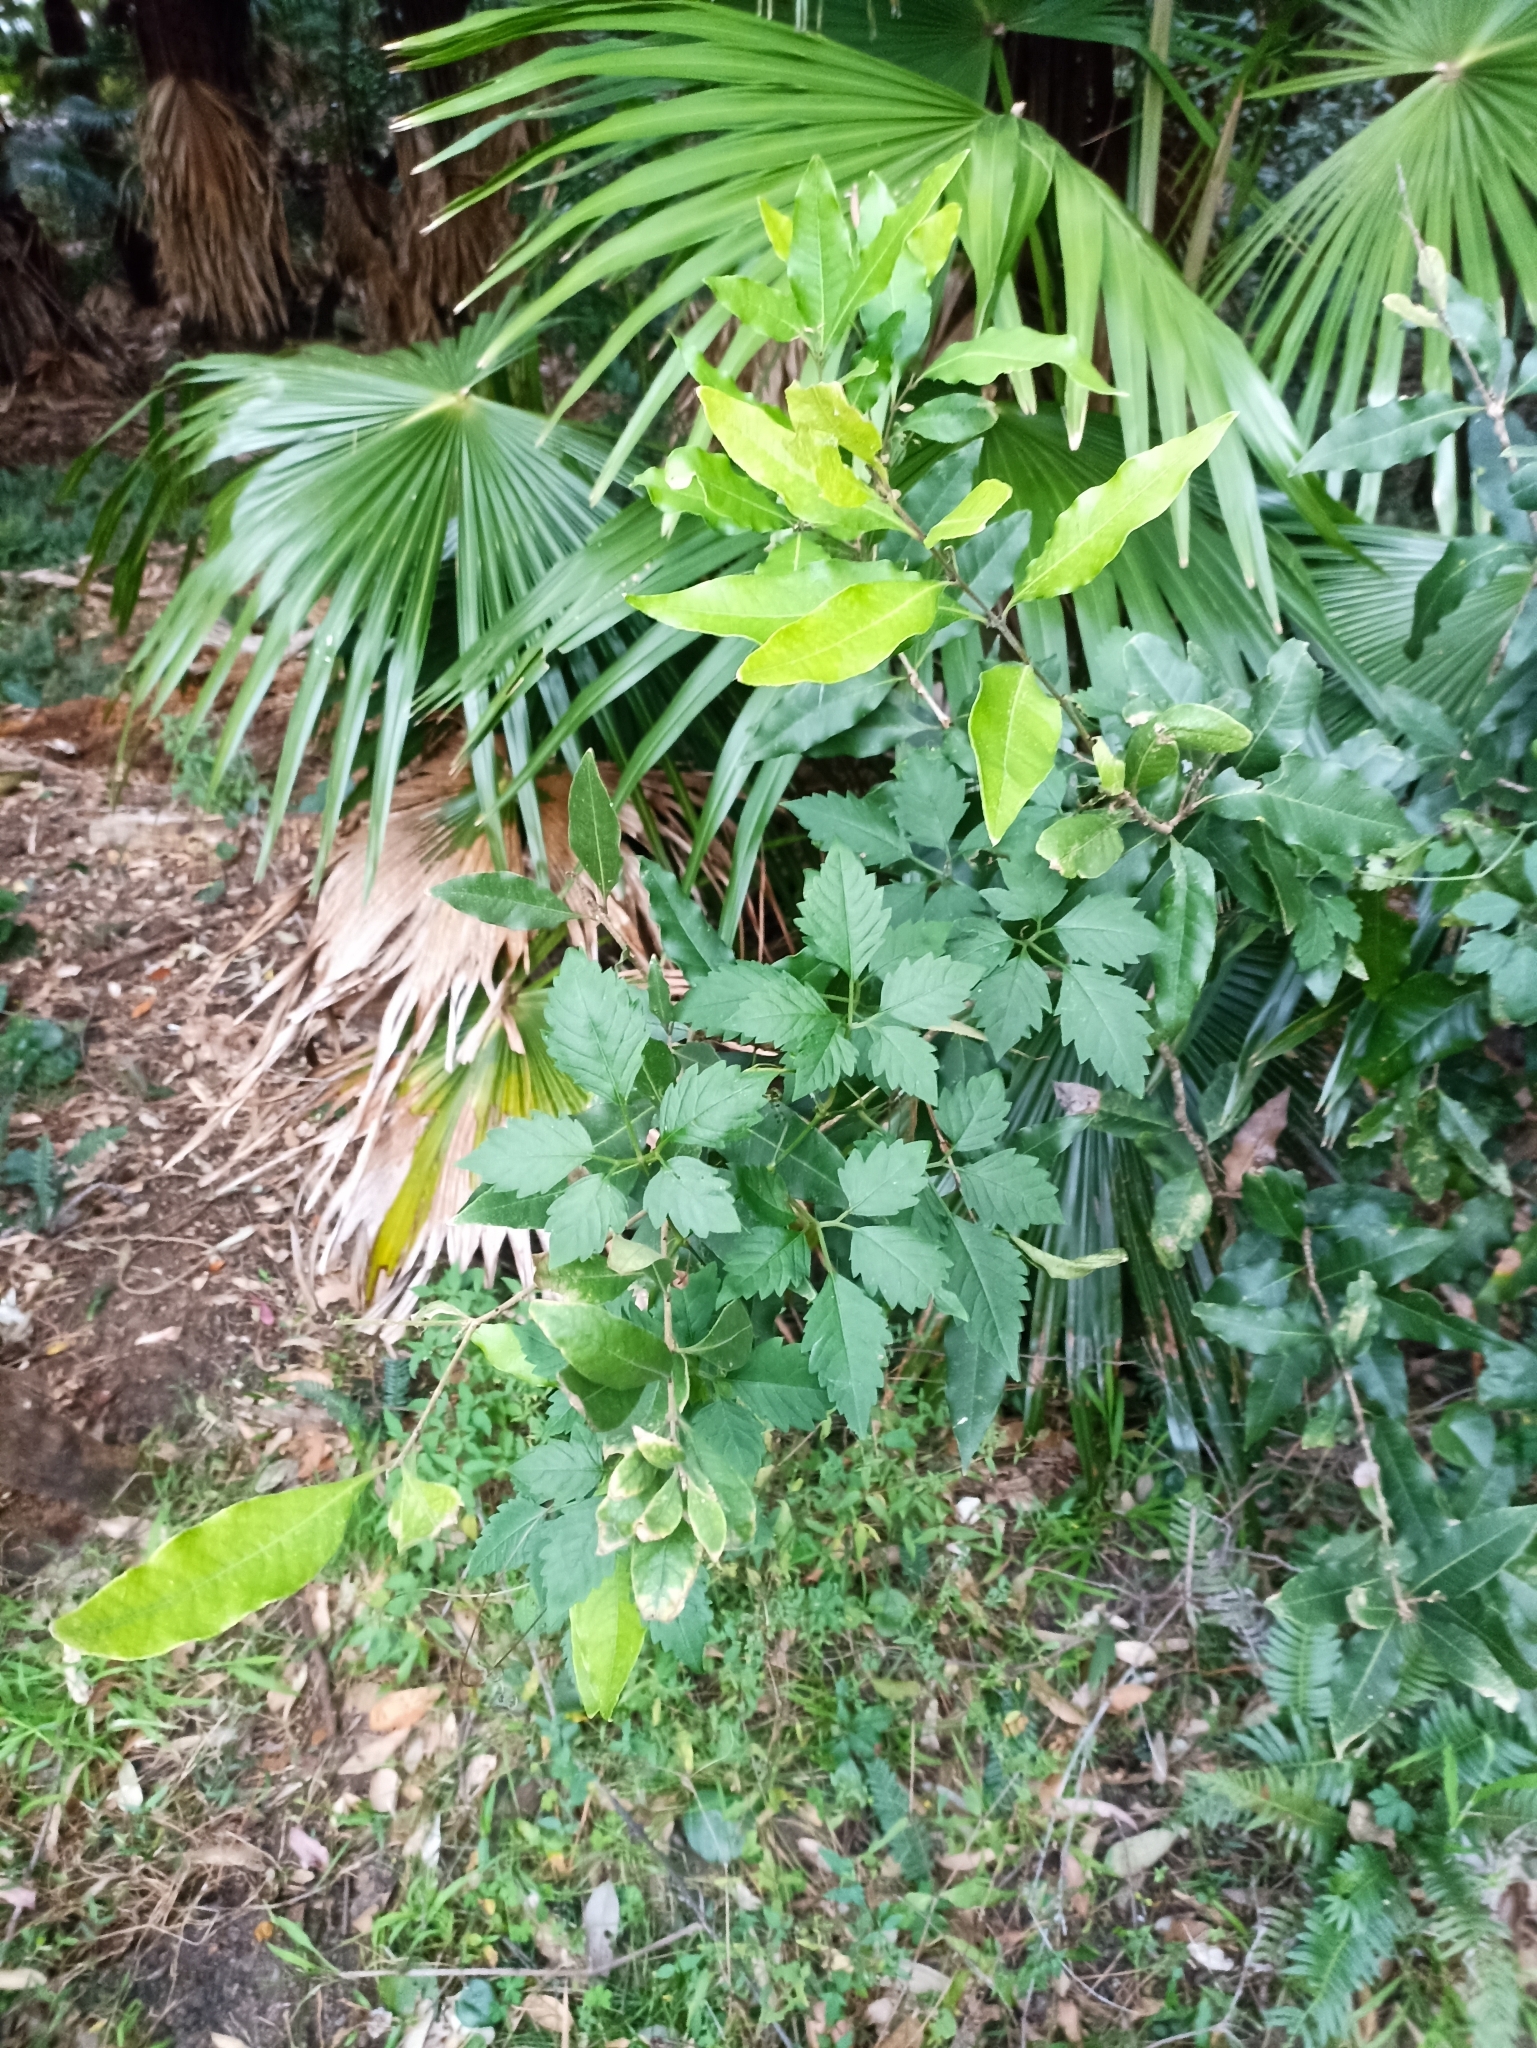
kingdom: Plantae
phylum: Tracheophyta
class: Magnoliopsida
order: Vitales
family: Vitaceae
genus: Causonis
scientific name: Causonis clematidea
